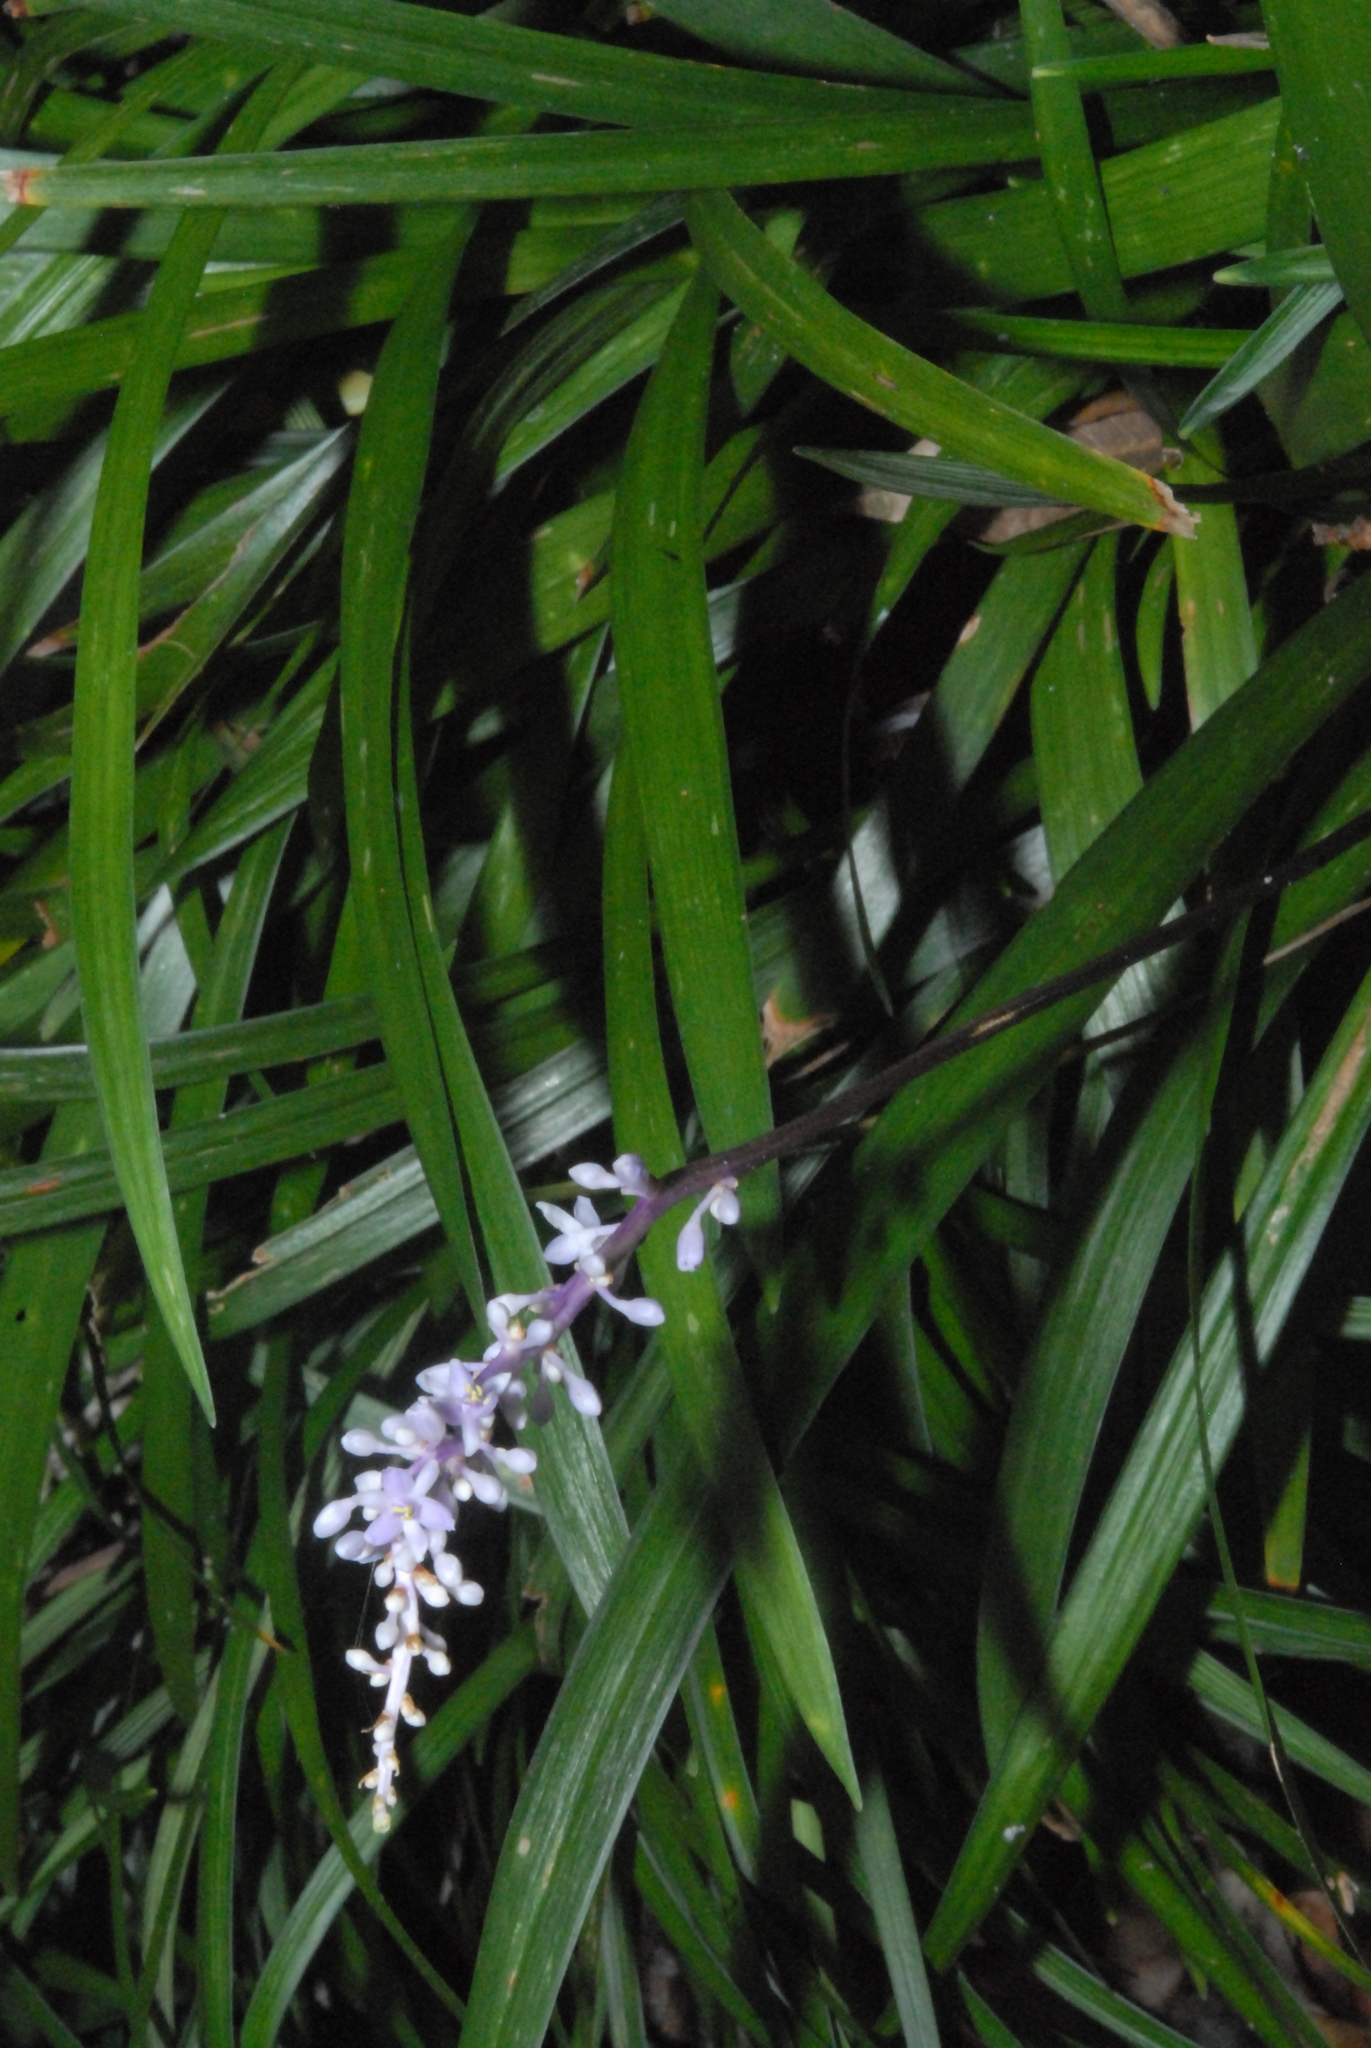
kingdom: Plantae
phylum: Tracheophyta
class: Liliopsida
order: Asparagales
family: Asparagaceae
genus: Liriope
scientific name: Liriope muscari
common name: Big blue lilyturf
